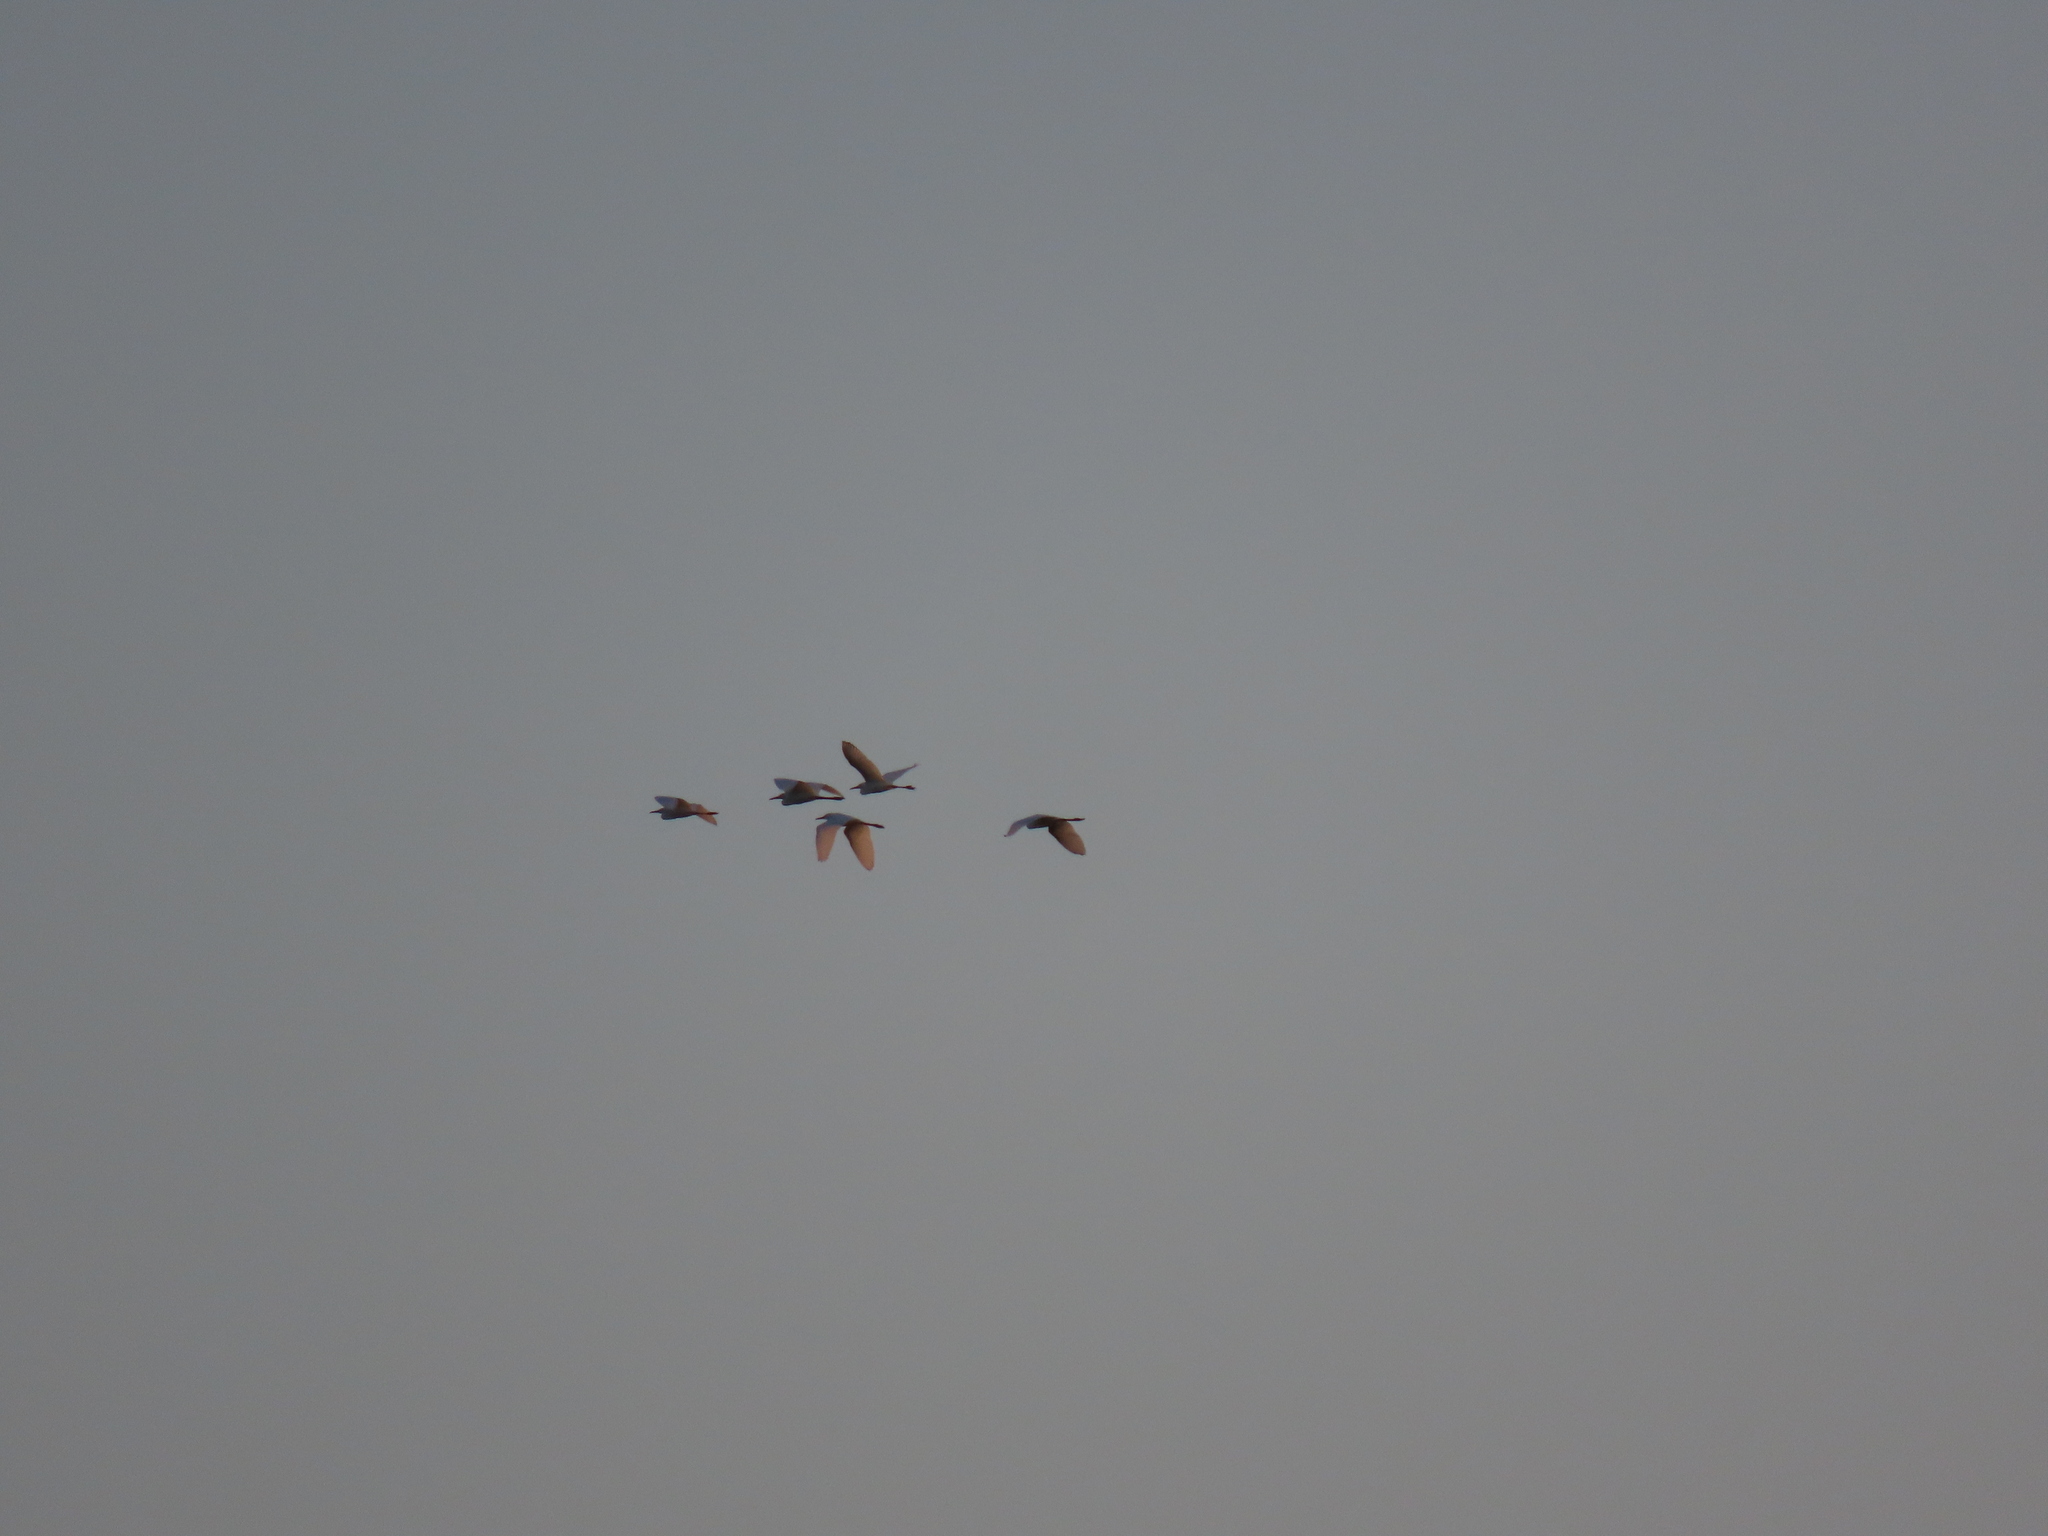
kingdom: Animalia
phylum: Chordata
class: Aves
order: Pelecaniformes
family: Ardeidae
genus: Ardea
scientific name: Ardea alba
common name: Great egret
